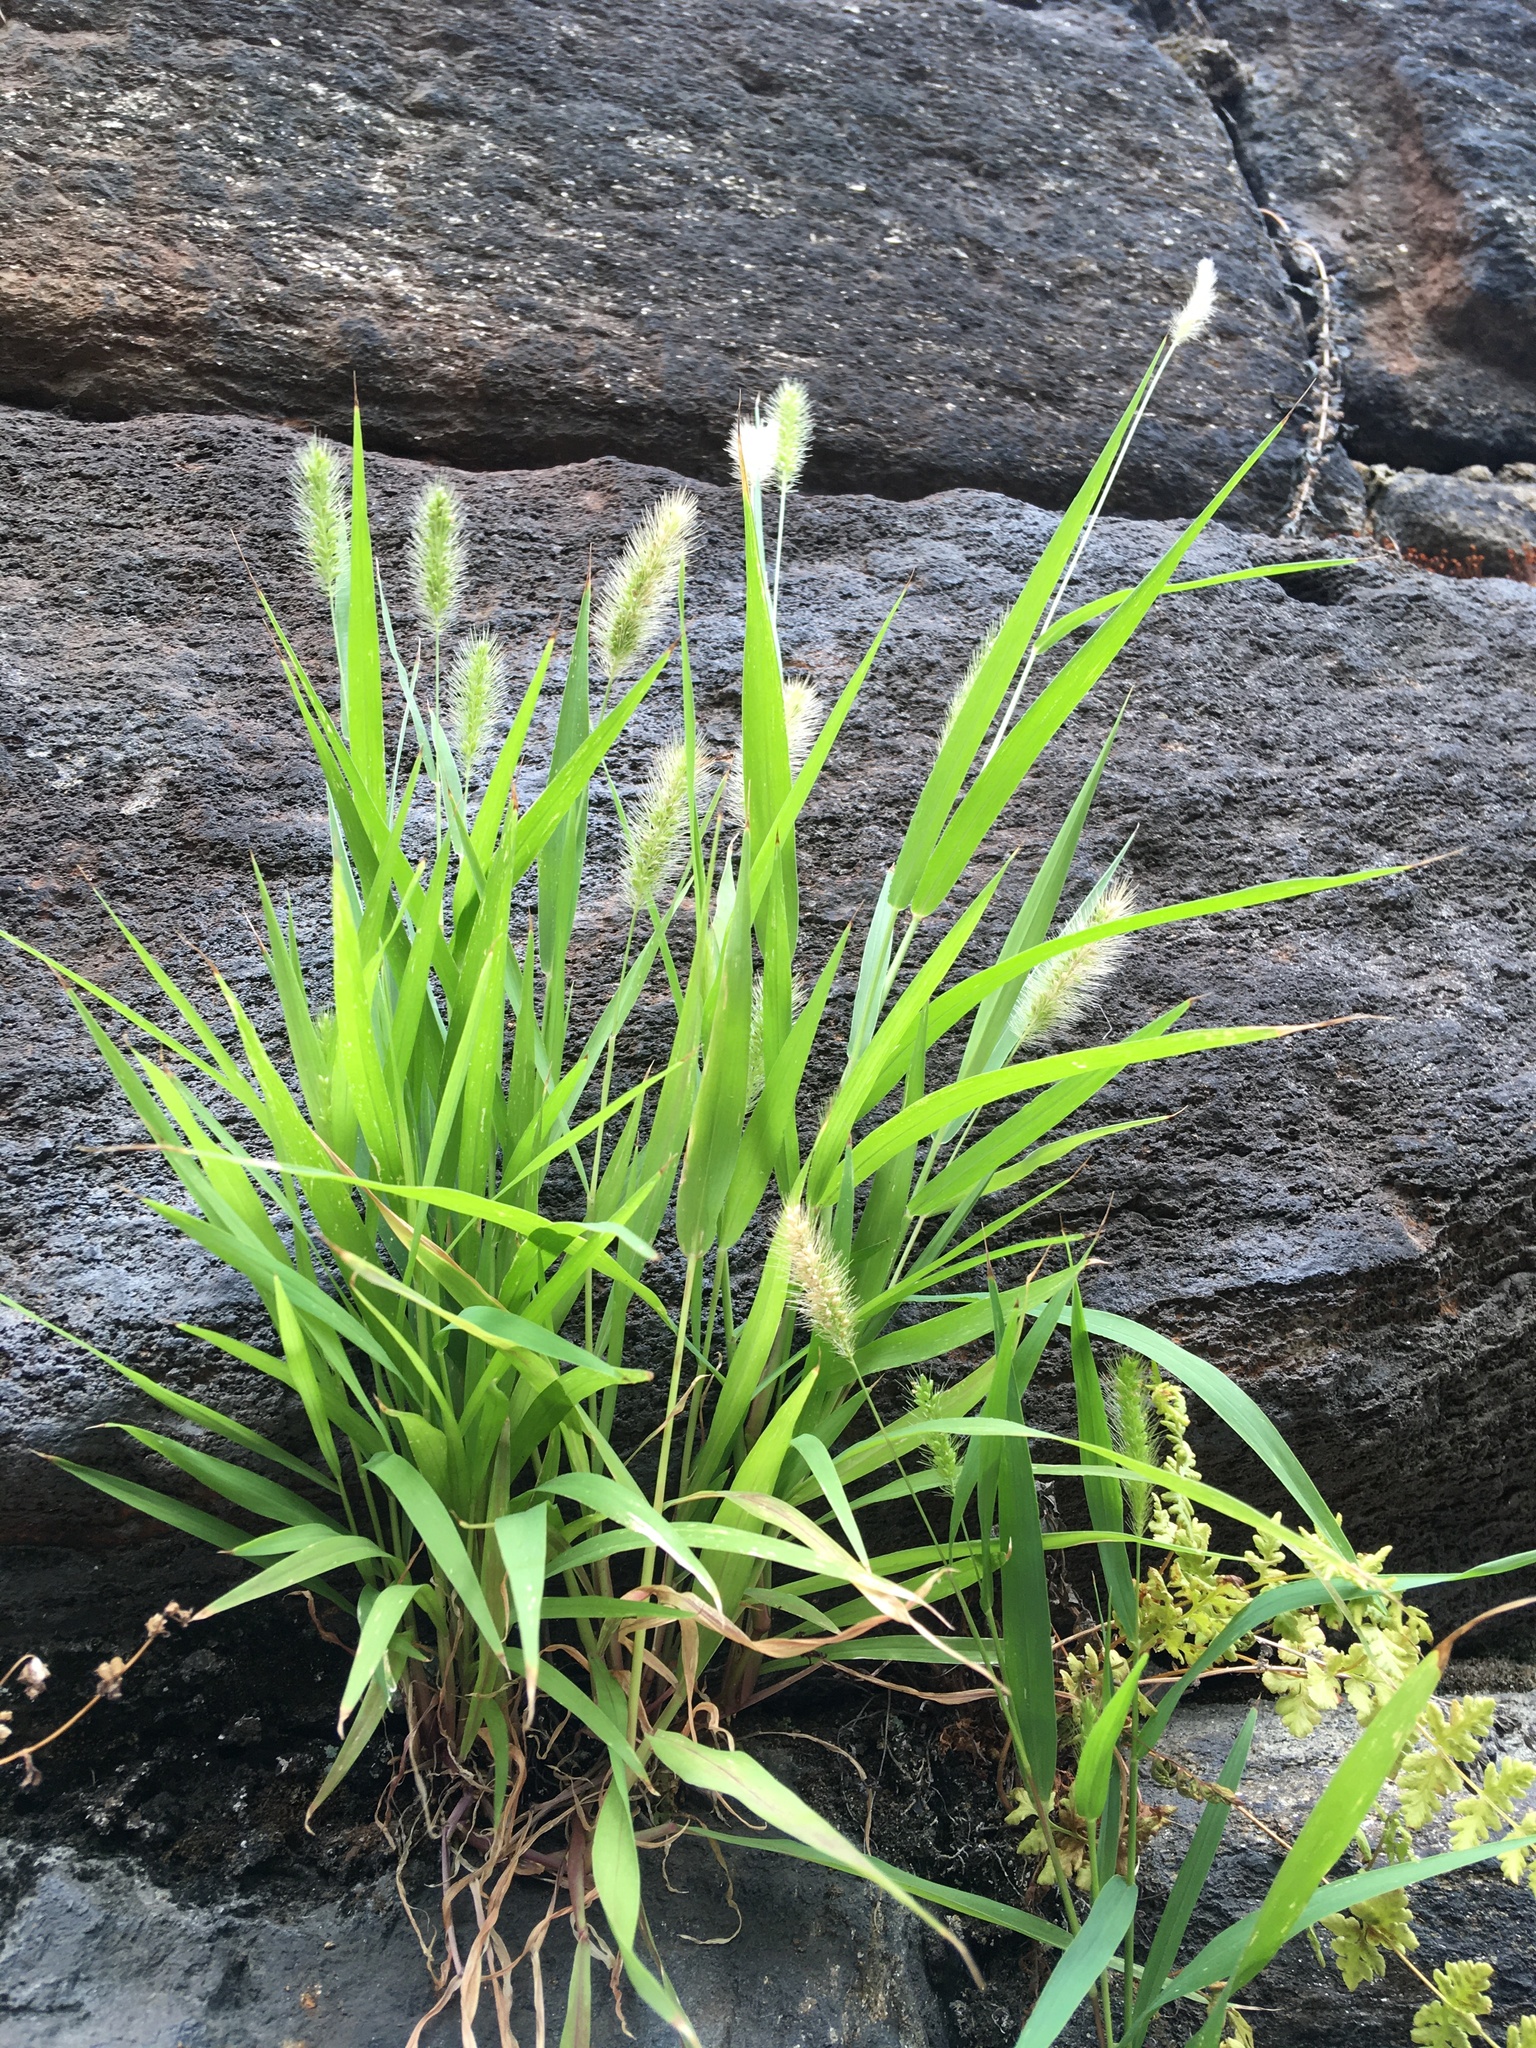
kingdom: Plantae
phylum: Tracheophyta
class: Liliopsida
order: Poales
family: Poaceae
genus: Setaria
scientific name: Setaria viridis
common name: Green bristlegrass
